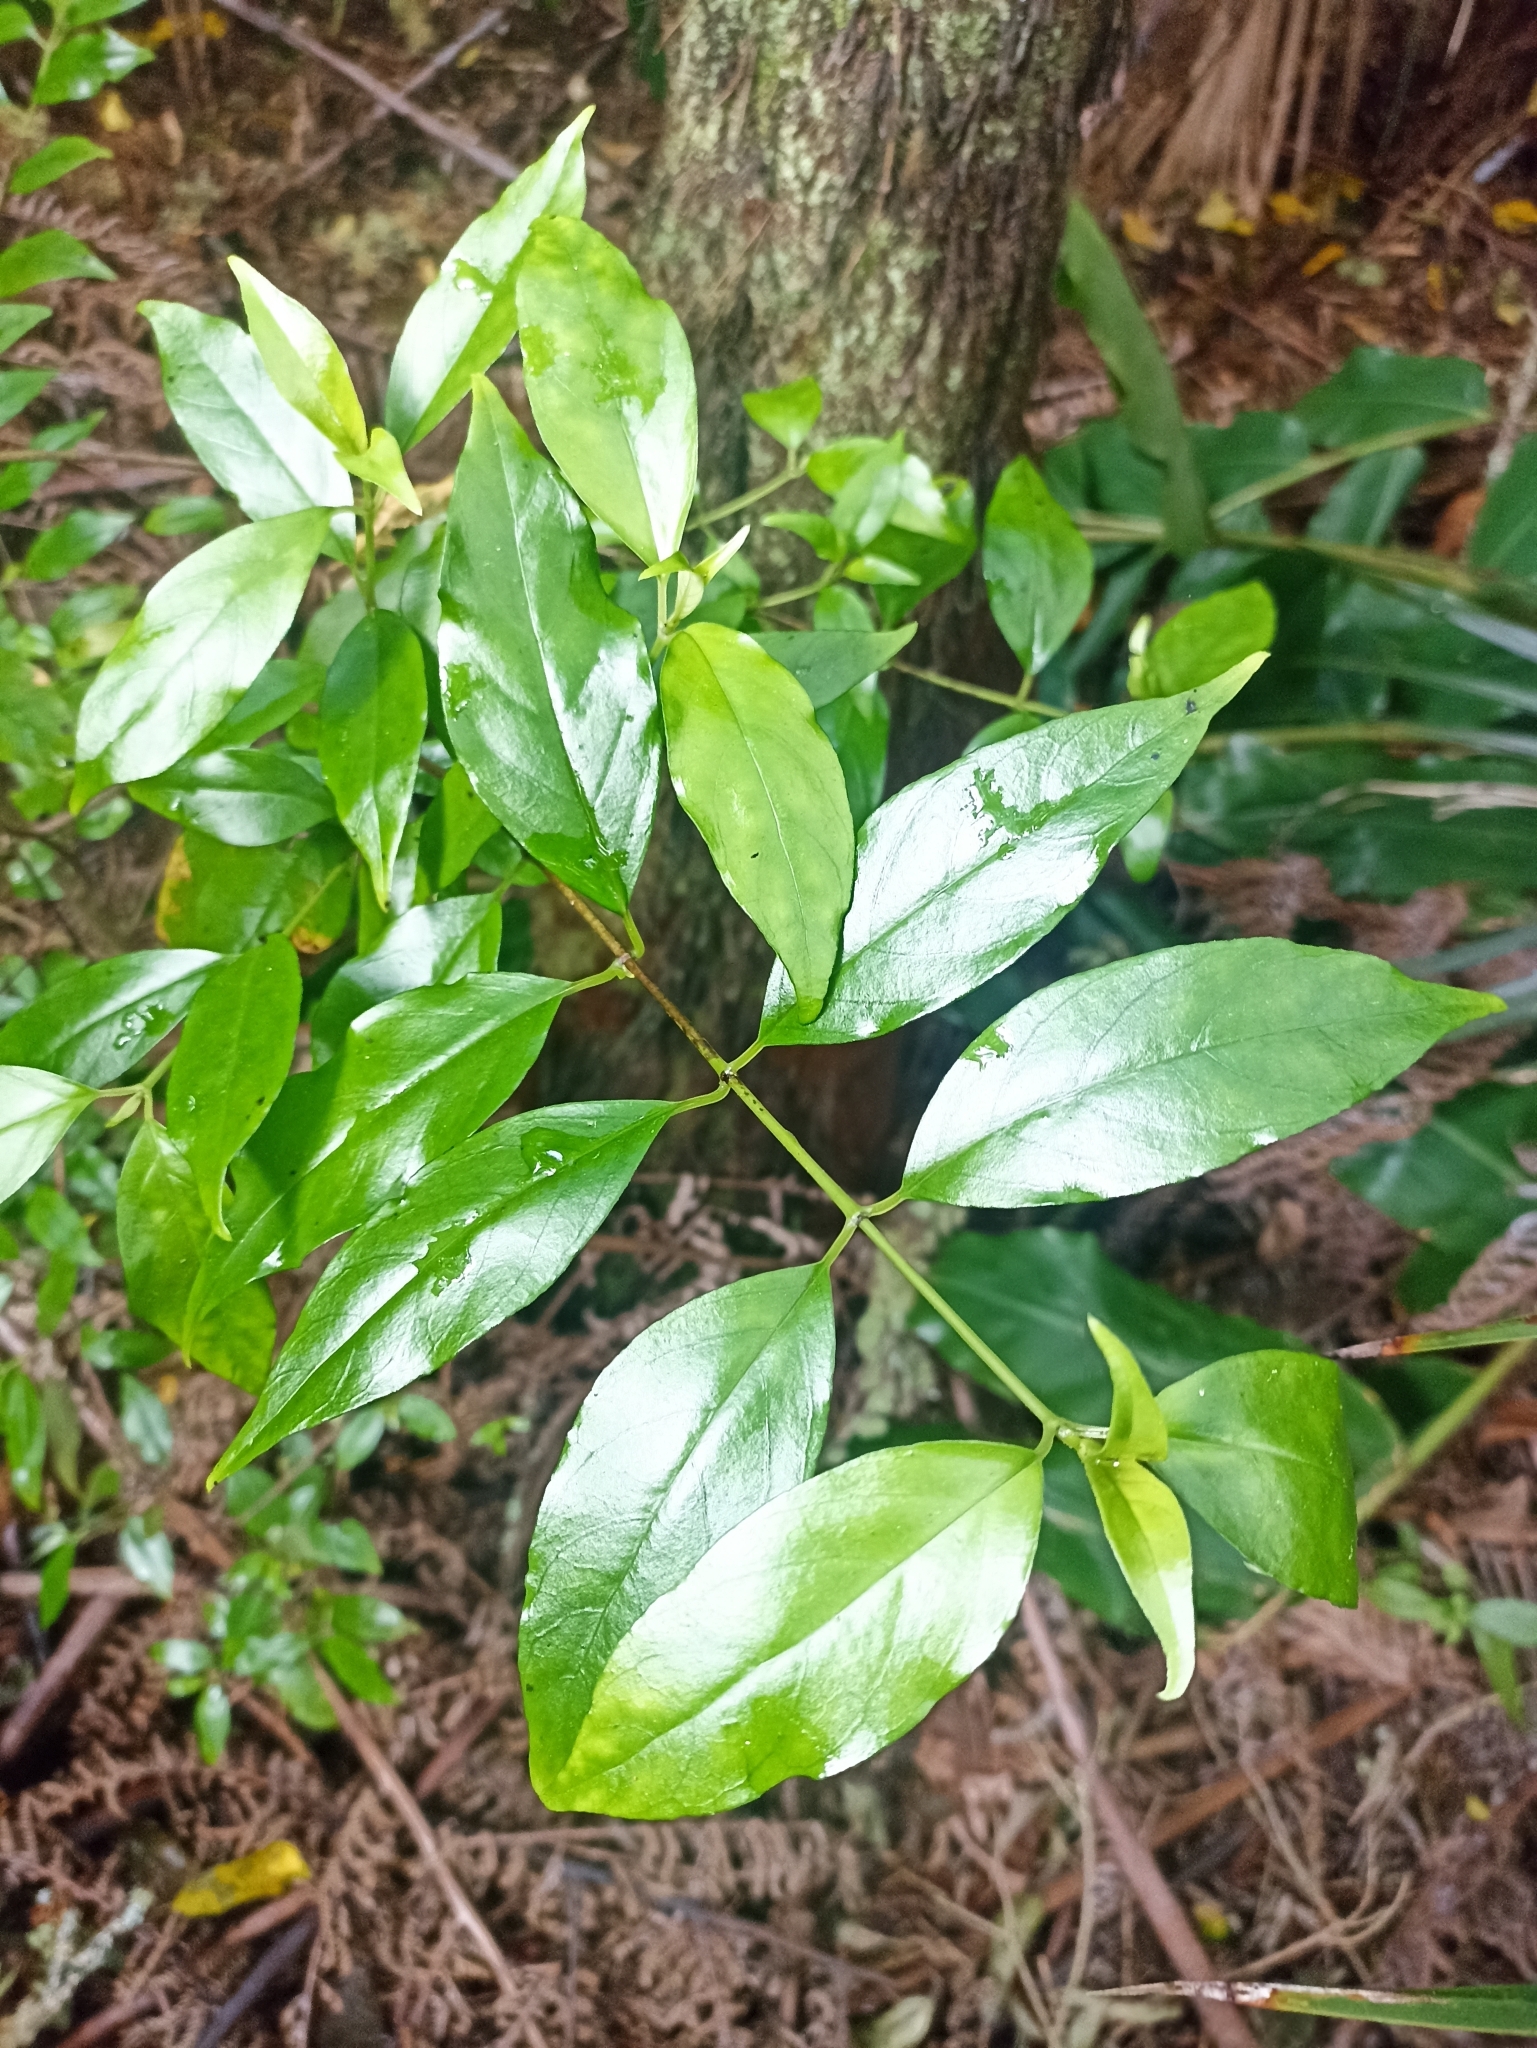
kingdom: Plantae
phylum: Tracheophyta
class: Magnoliopsida
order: Gentianales
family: Loganiaceae
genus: Geniostoma
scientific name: Geniostoma ligustrifolium
